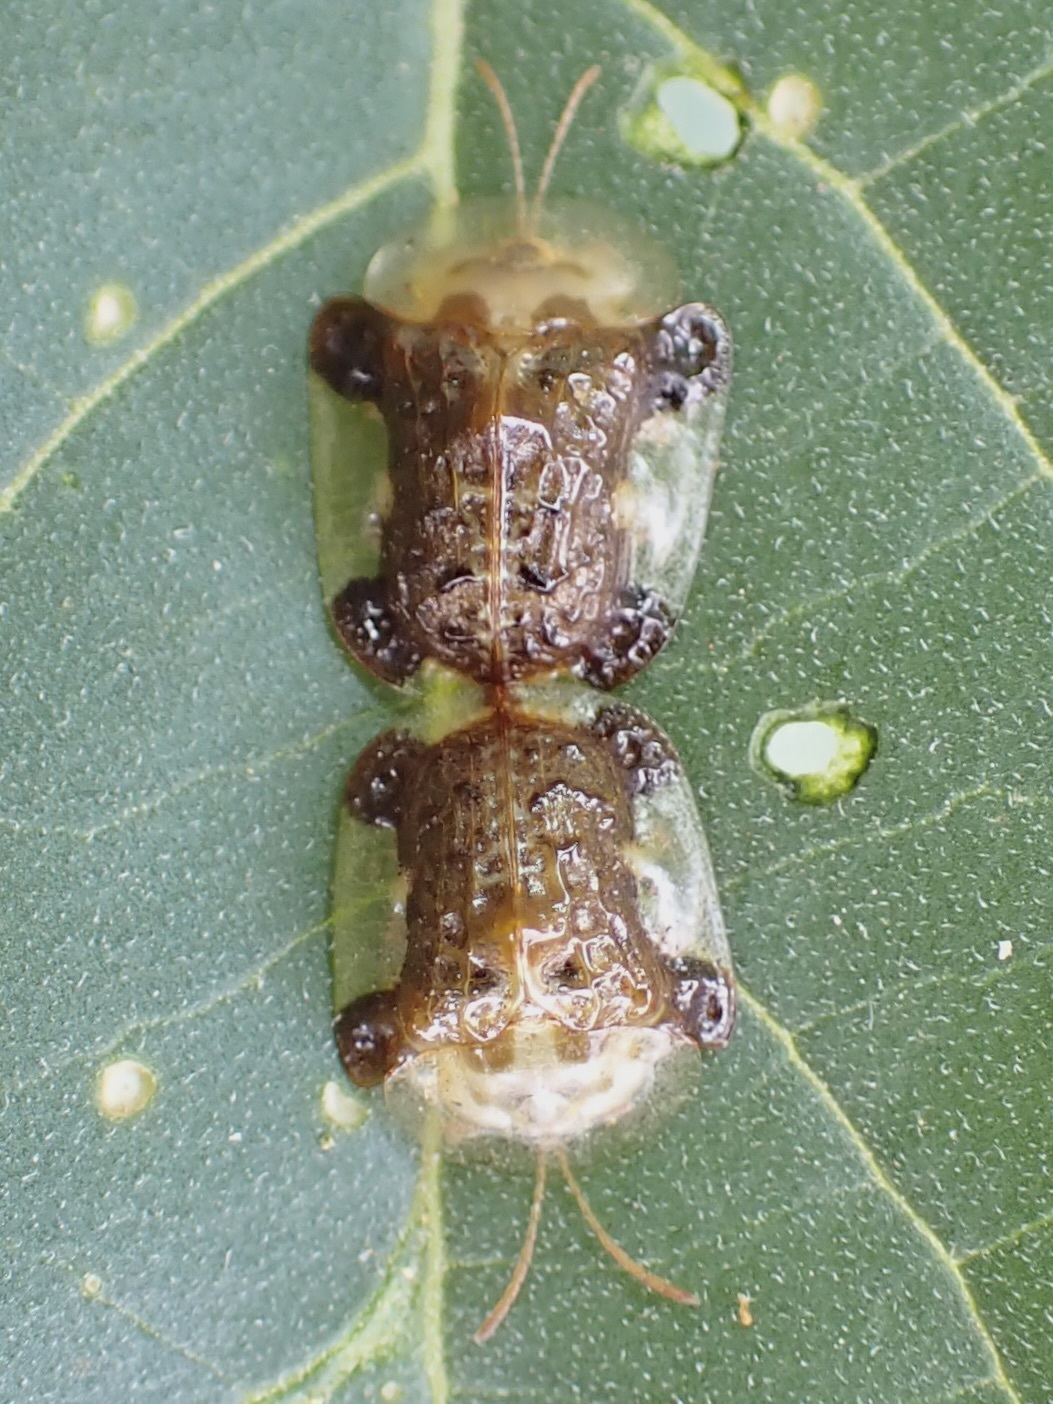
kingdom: Animalia
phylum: Arthropoda
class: Insecta
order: Coleoptera
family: Chrysomelidae
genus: Helocassis
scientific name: Helocassis testudinaria
